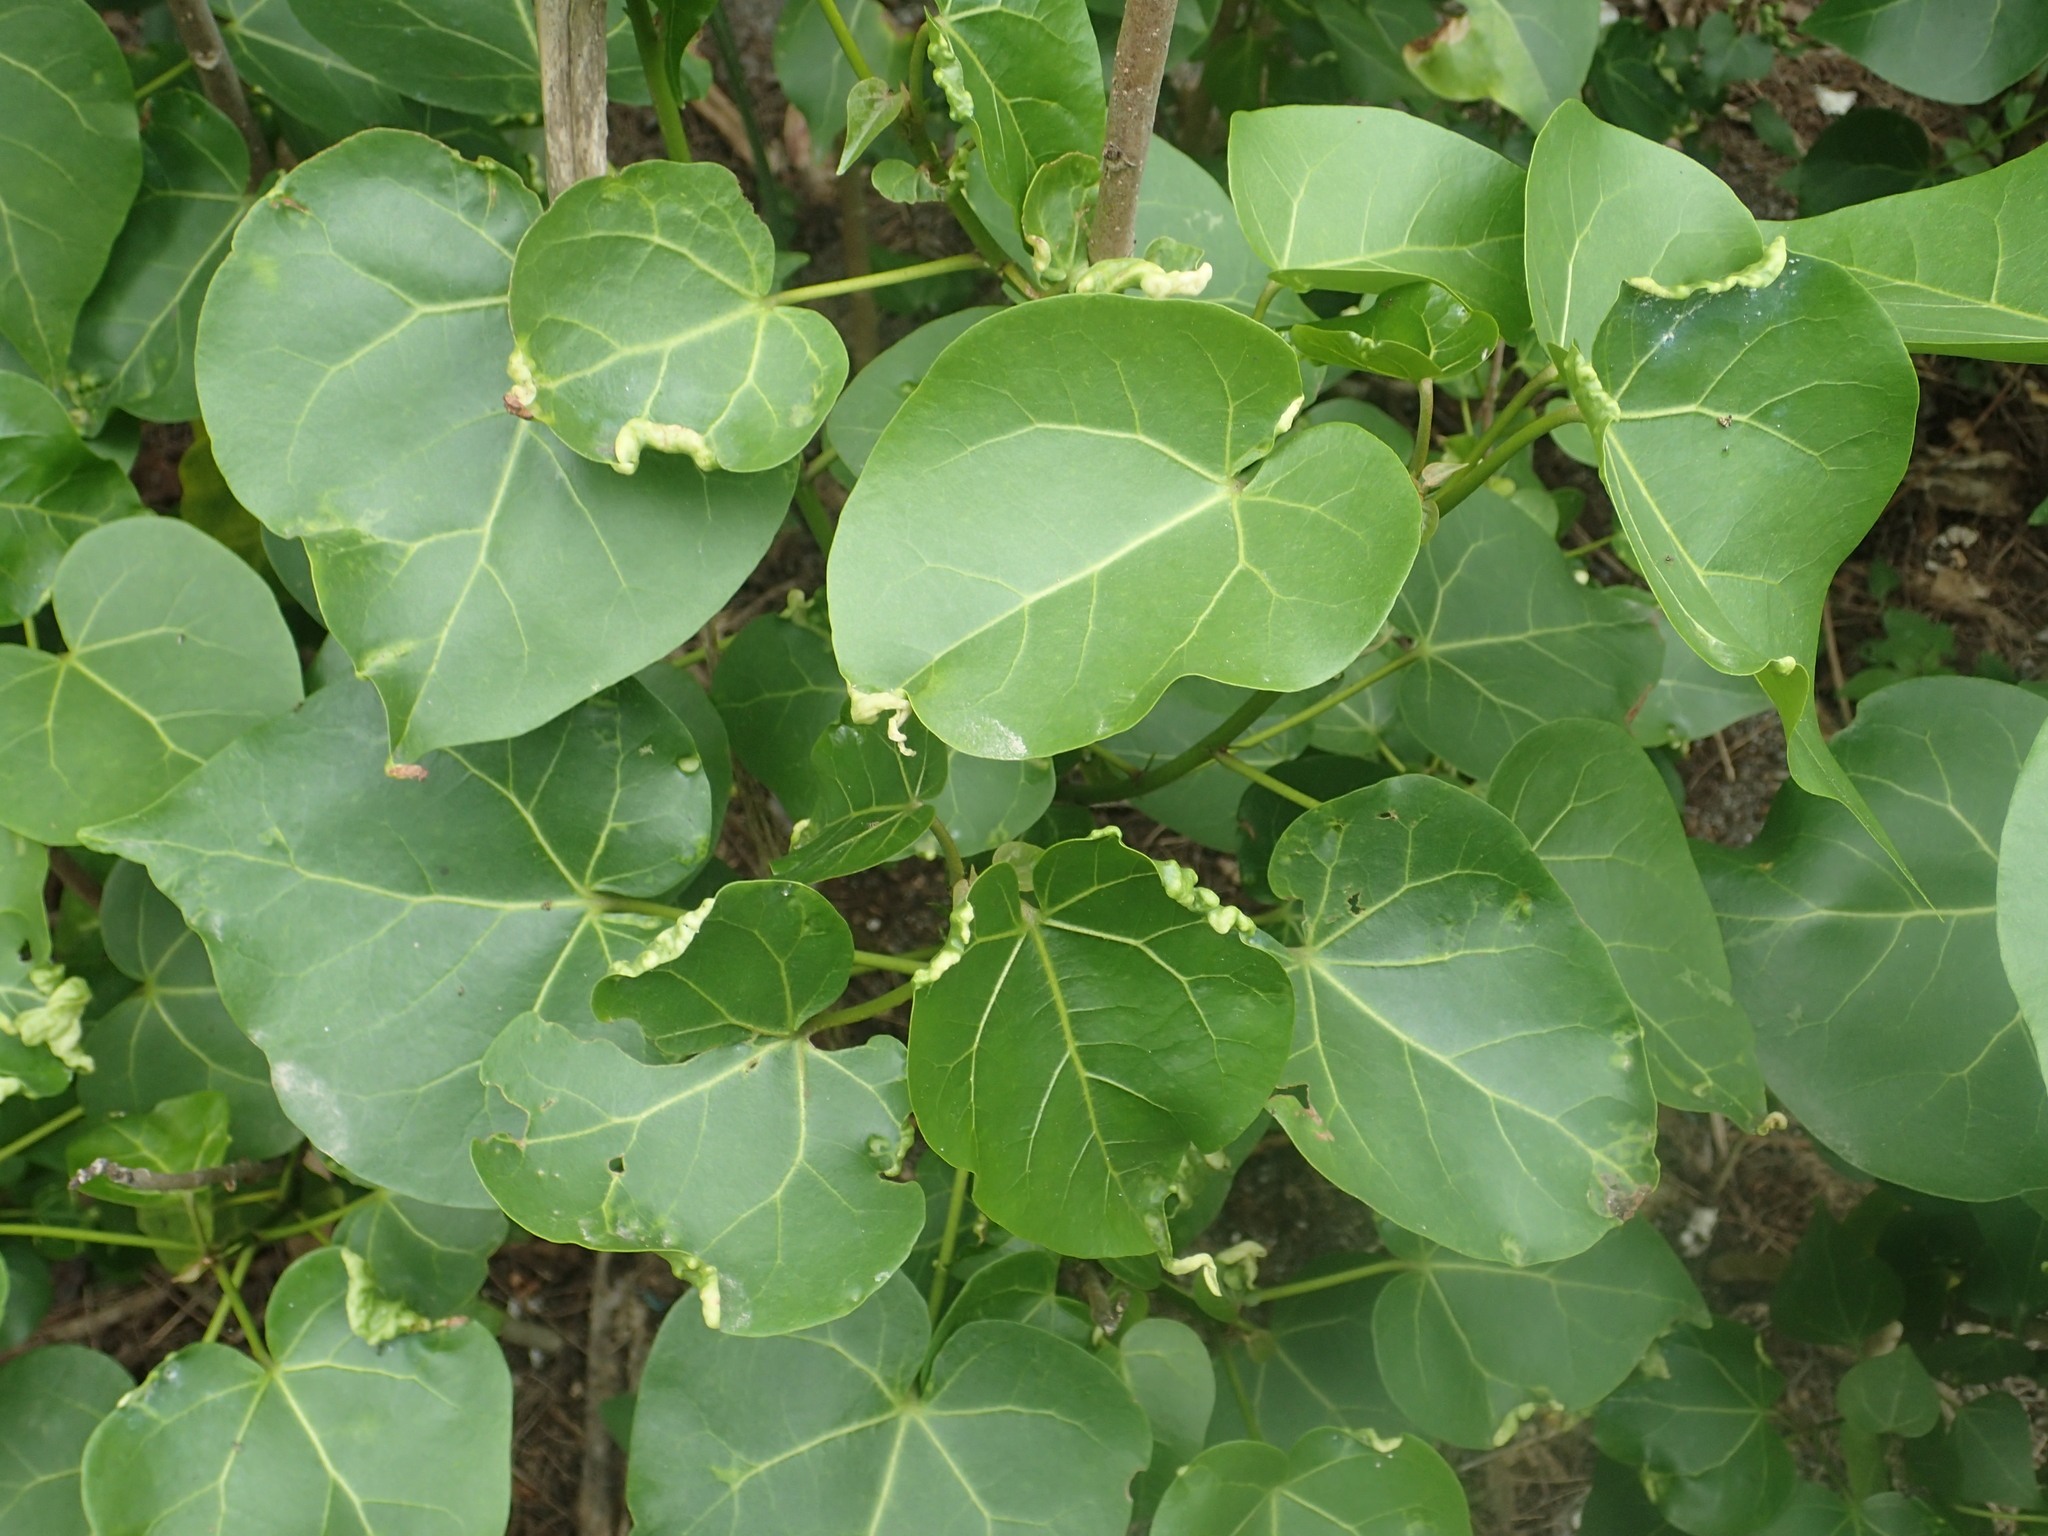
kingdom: Plantae
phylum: Tracheophyta
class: Magnoliopsida
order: Malvales
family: Malvaceae
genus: Thespesia
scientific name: Thespesia populnea
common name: Seaside mahoe
